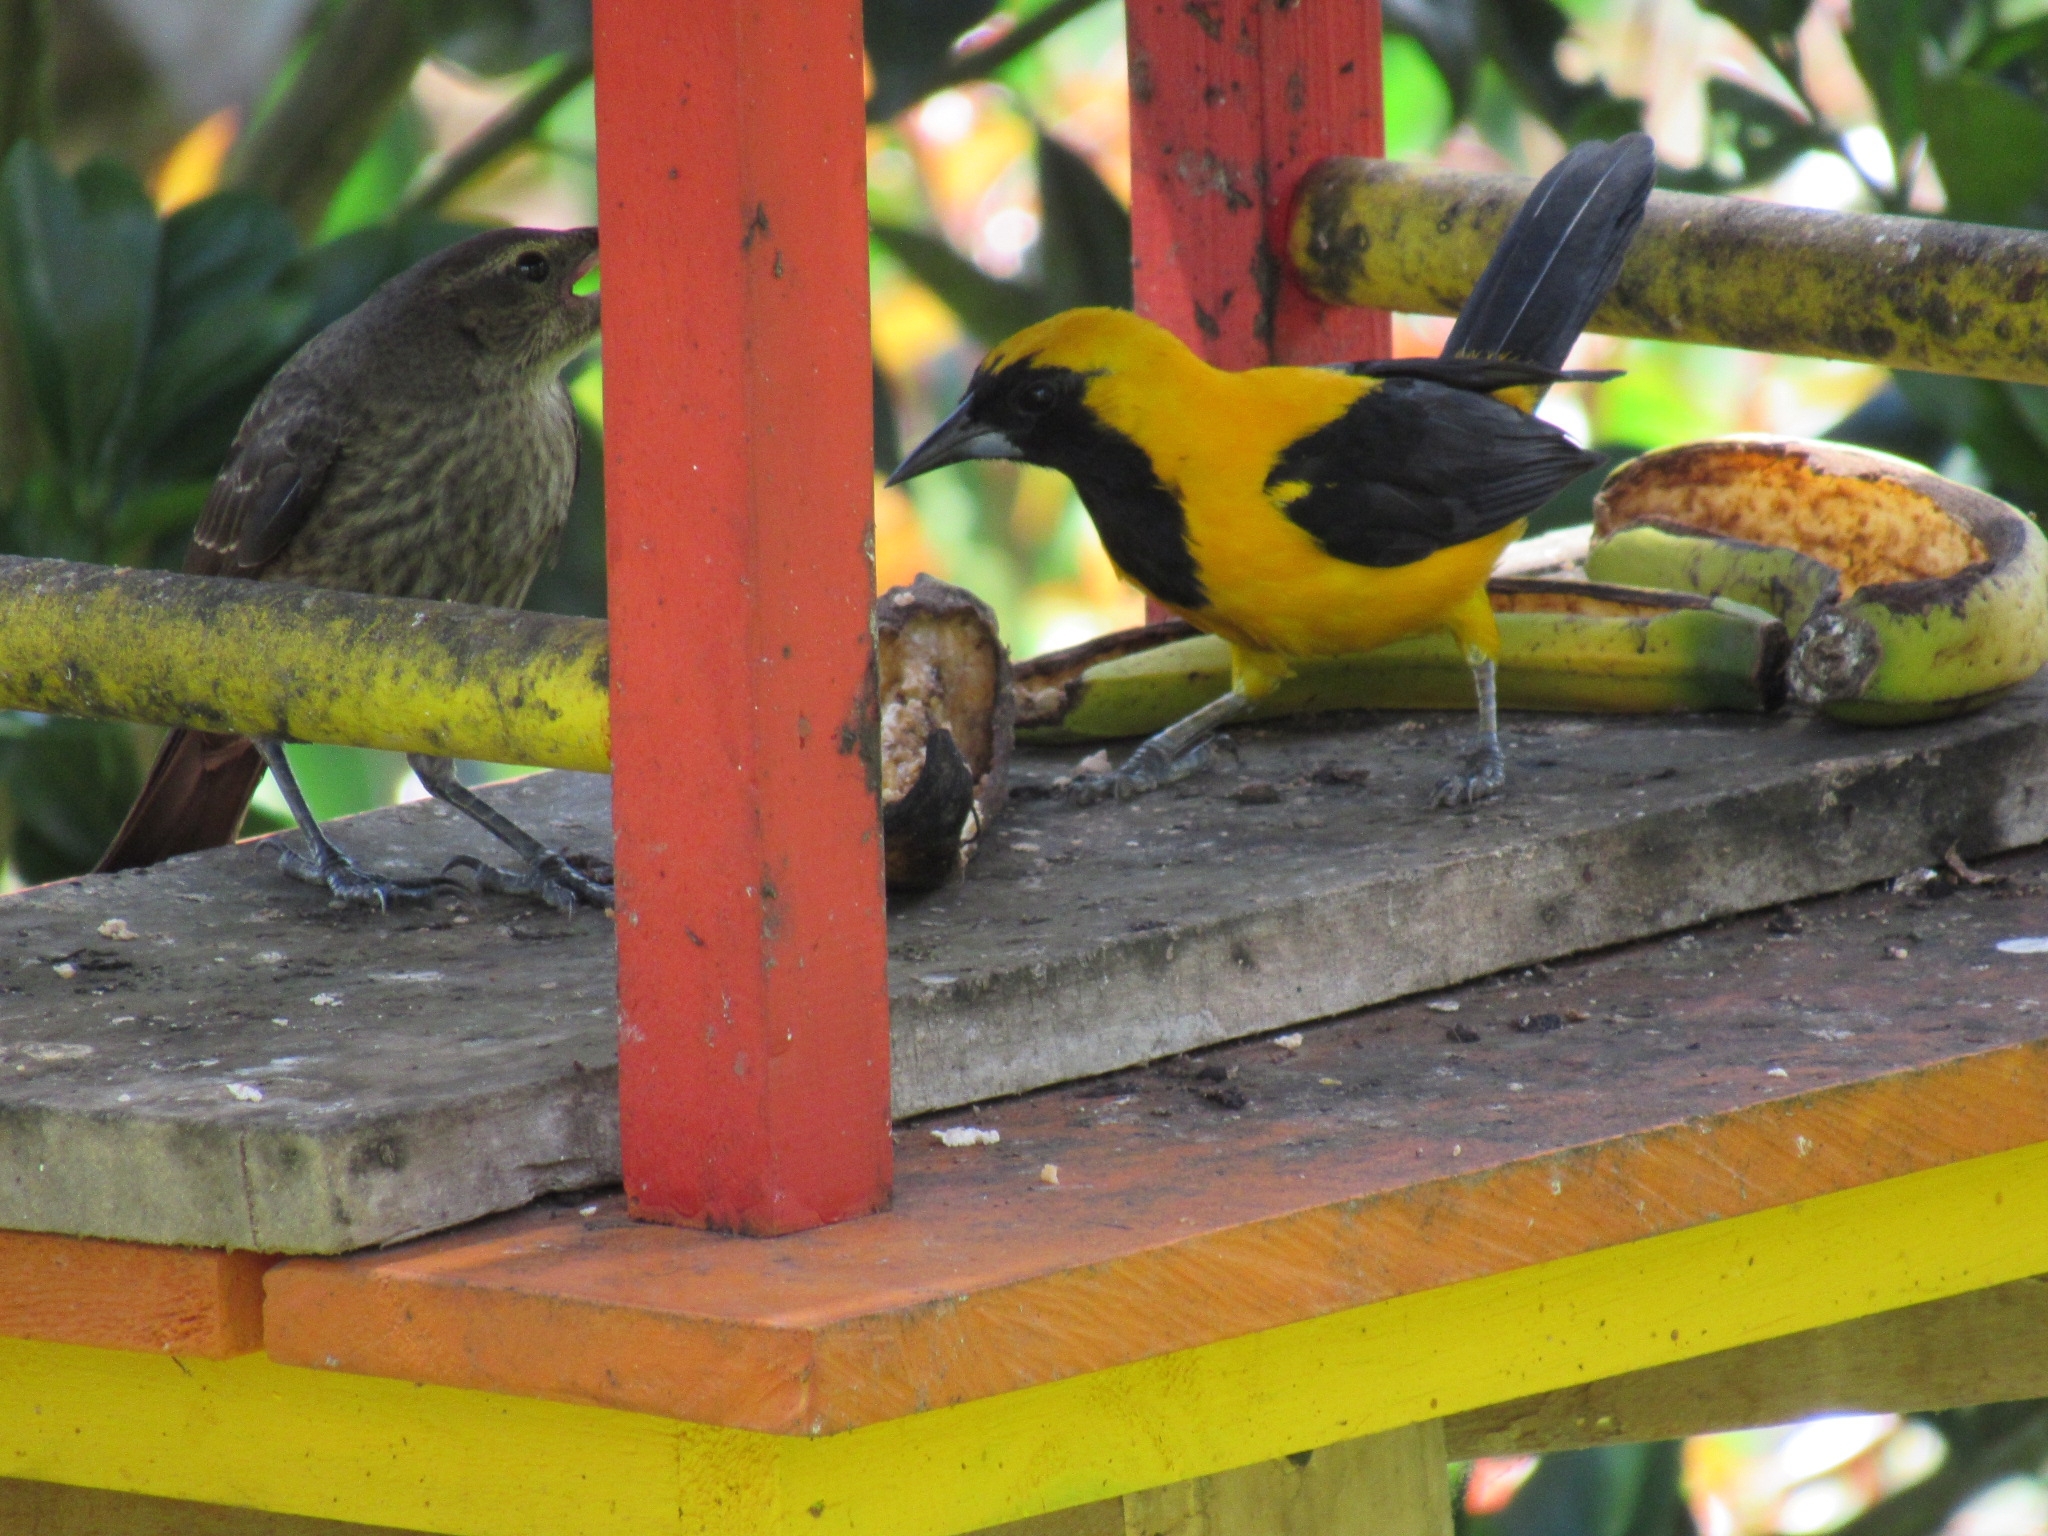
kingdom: Animalia
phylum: Chordata
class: Aves
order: Passeriformes
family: Icteridae
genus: Icterus
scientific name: Icterus chrysater
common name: Yellow-backed oriole
